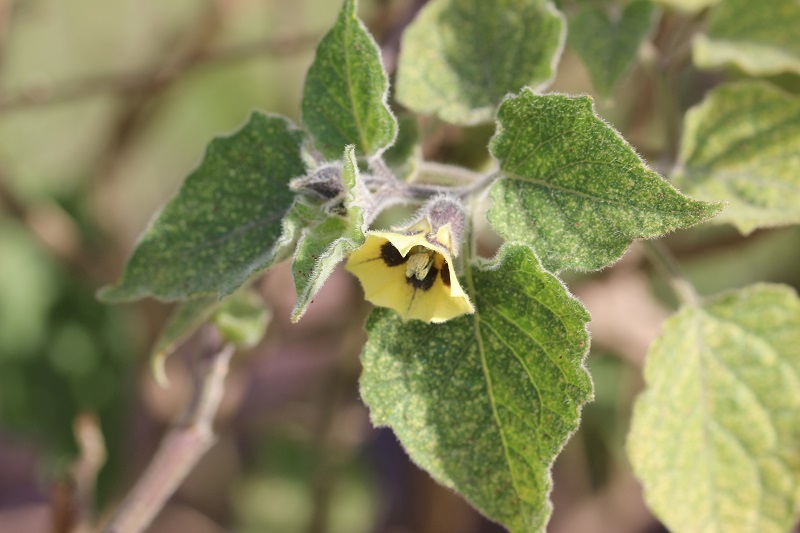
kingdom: Plantae
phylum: Tracheophyta
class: Magnoliopsida
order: Solanales
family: Solanaceae
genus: Physalis
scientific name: Physalis peruviana
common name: Cape-gooseberry
